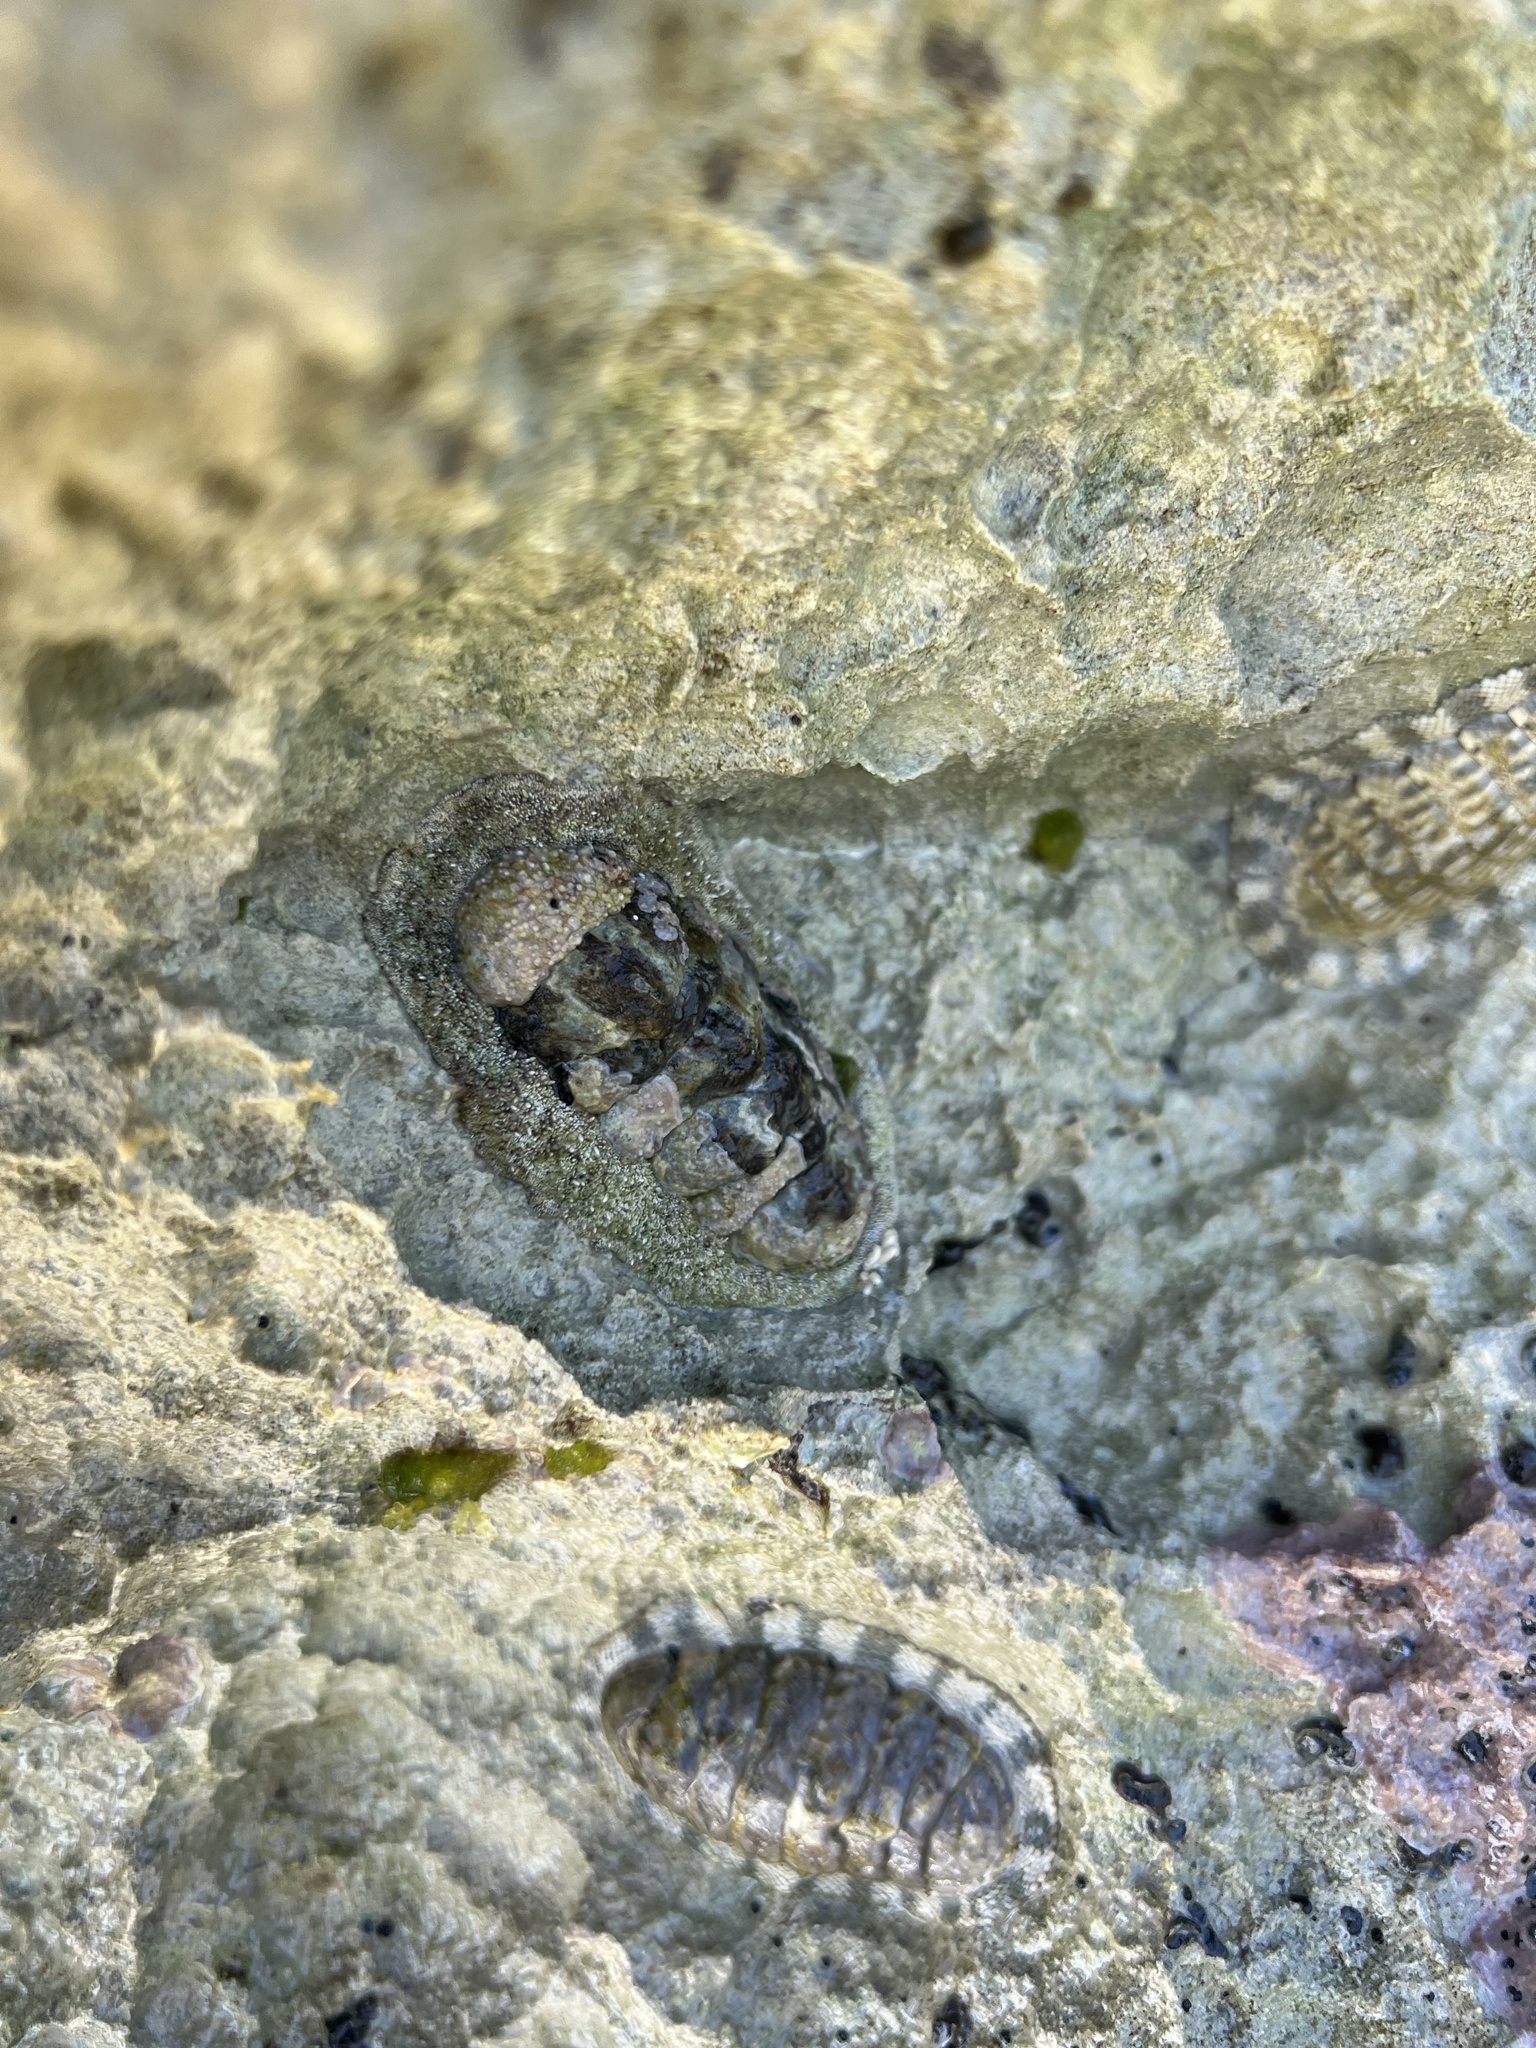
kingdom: Animalia
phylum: Mollusca
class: Polyplacophora
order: Chitonida
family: Chitonidae
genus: Acanthopleura
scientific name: Acanthopleura granulata
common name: West indian fuzzy chiton
